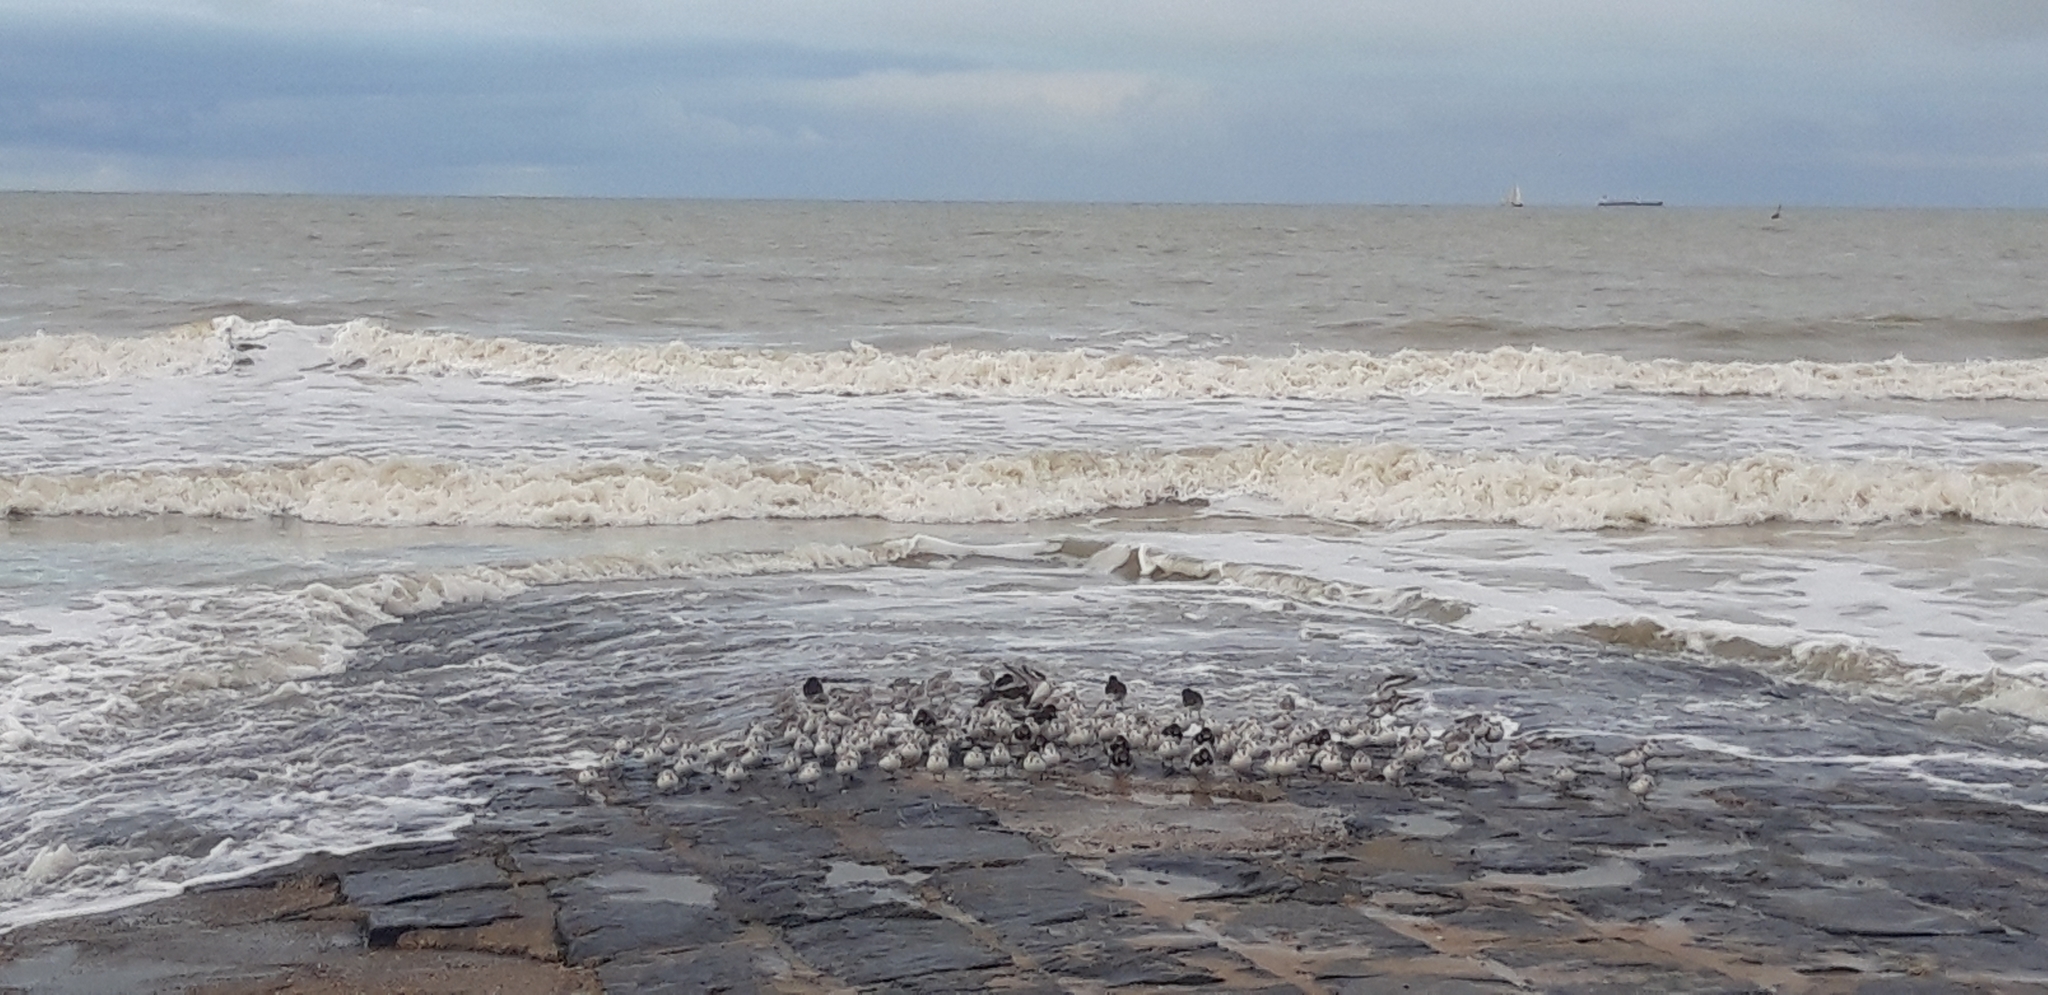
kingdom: Animalia
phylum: Chordata
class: Aves
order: Charadriiformes
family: Scolopacidae
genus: Calidris
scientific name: Calidris alba
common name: Sanderling
